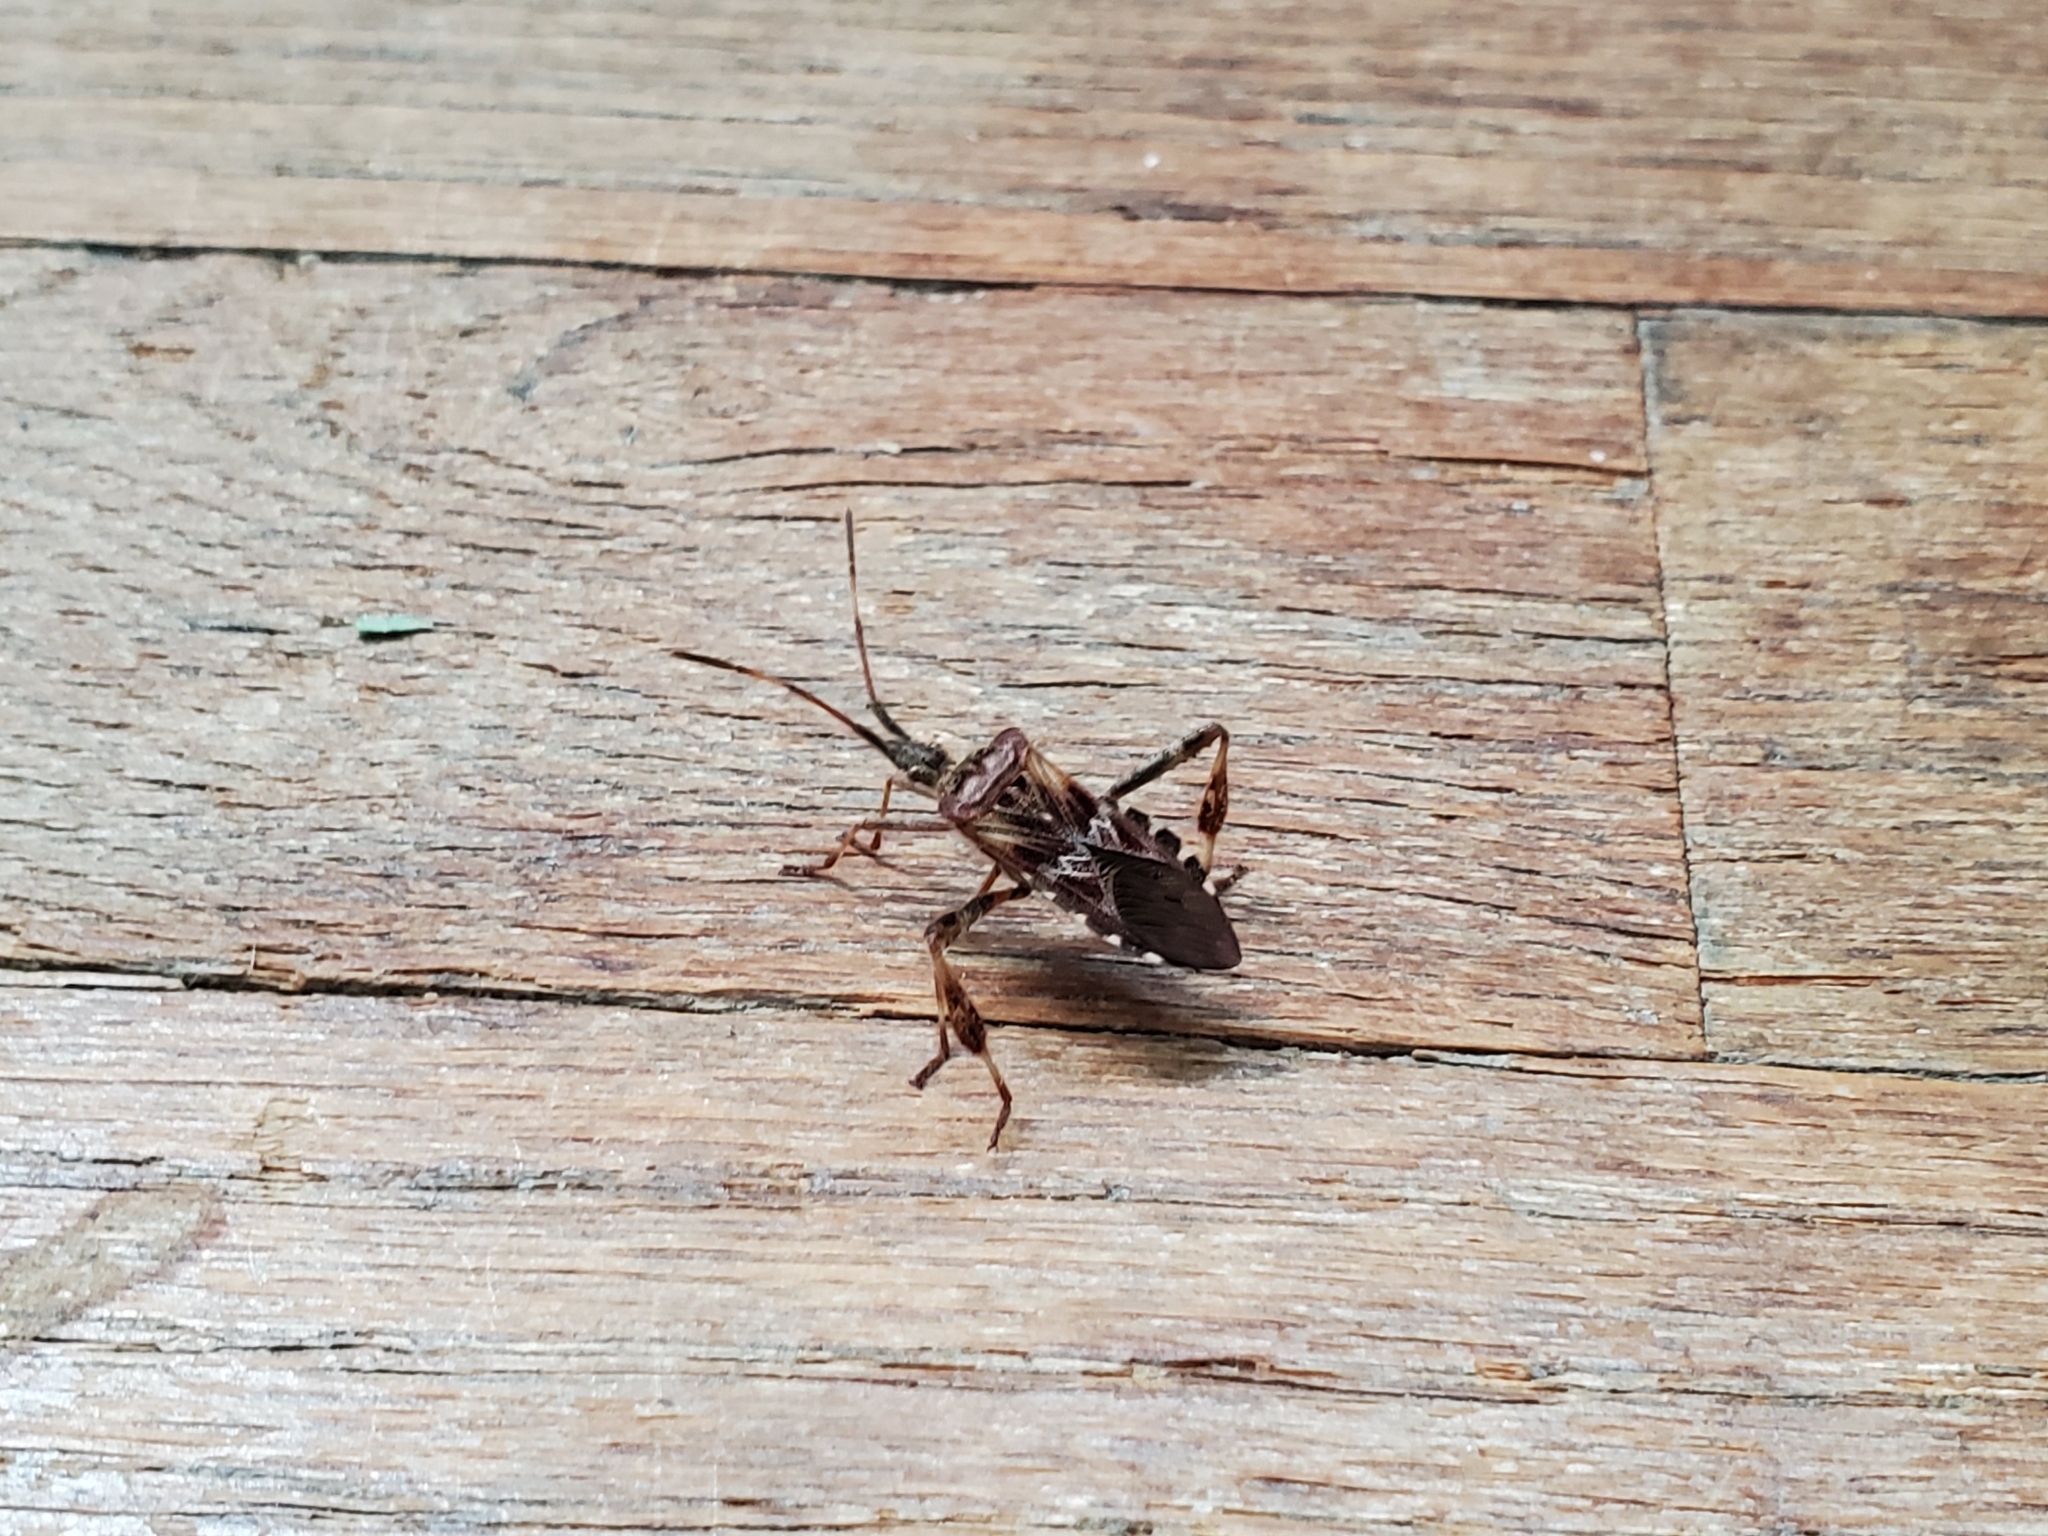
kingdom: Animalia
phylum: Arthropoda
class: Insecta
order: Hemiptera
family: Coreidae
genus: Leptoglossus
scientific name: Leptoglossus occidentalis
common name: Western conifer-seed bug
